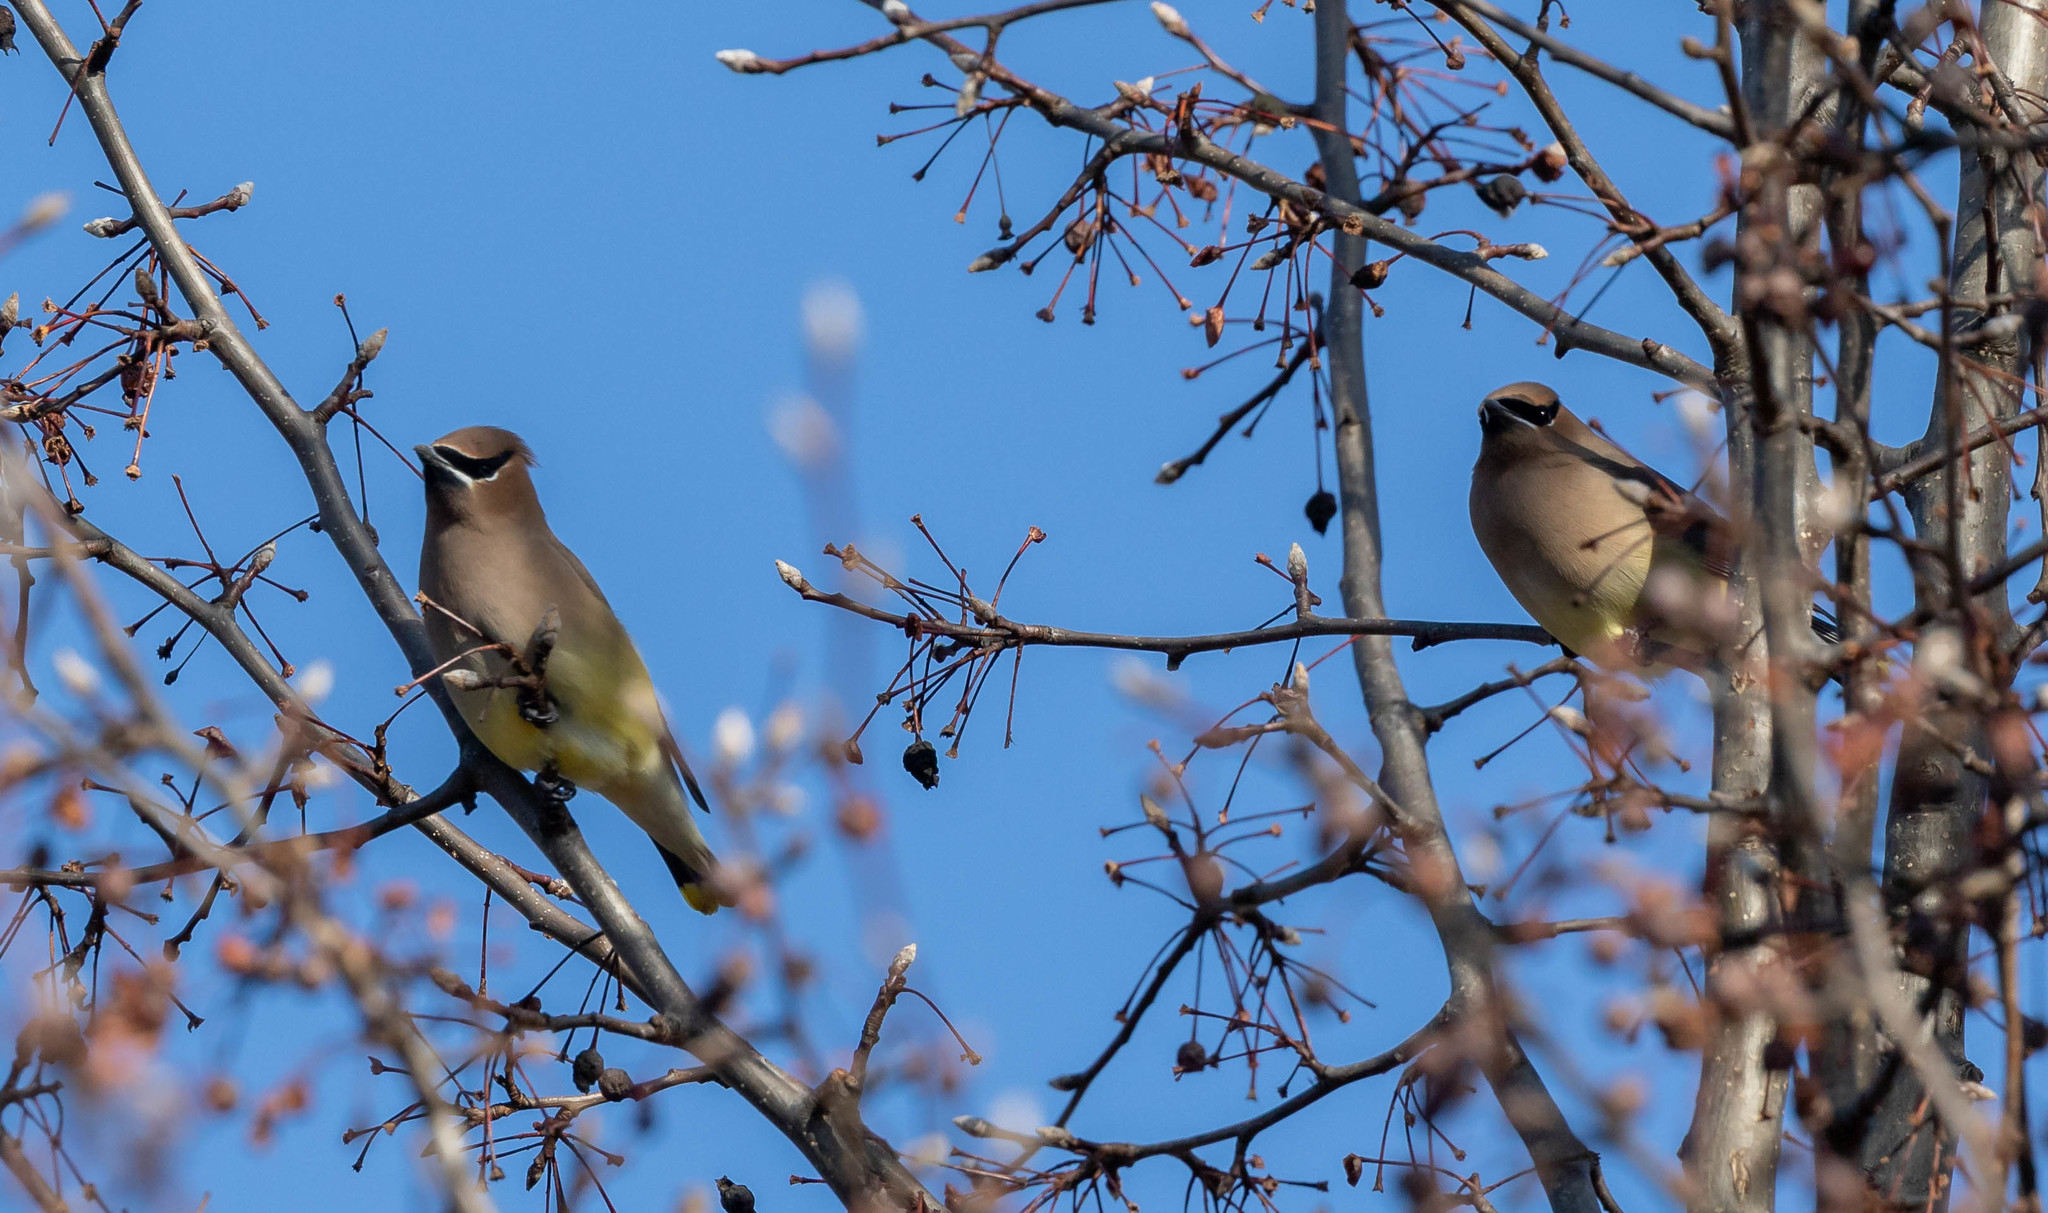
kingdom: Animalia
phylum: Chordata
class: Aves
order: Passeriformes
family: Bombycillidae
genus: Bombycilla
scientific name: Bombycilla cedrorum
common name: Cedar waxwing
